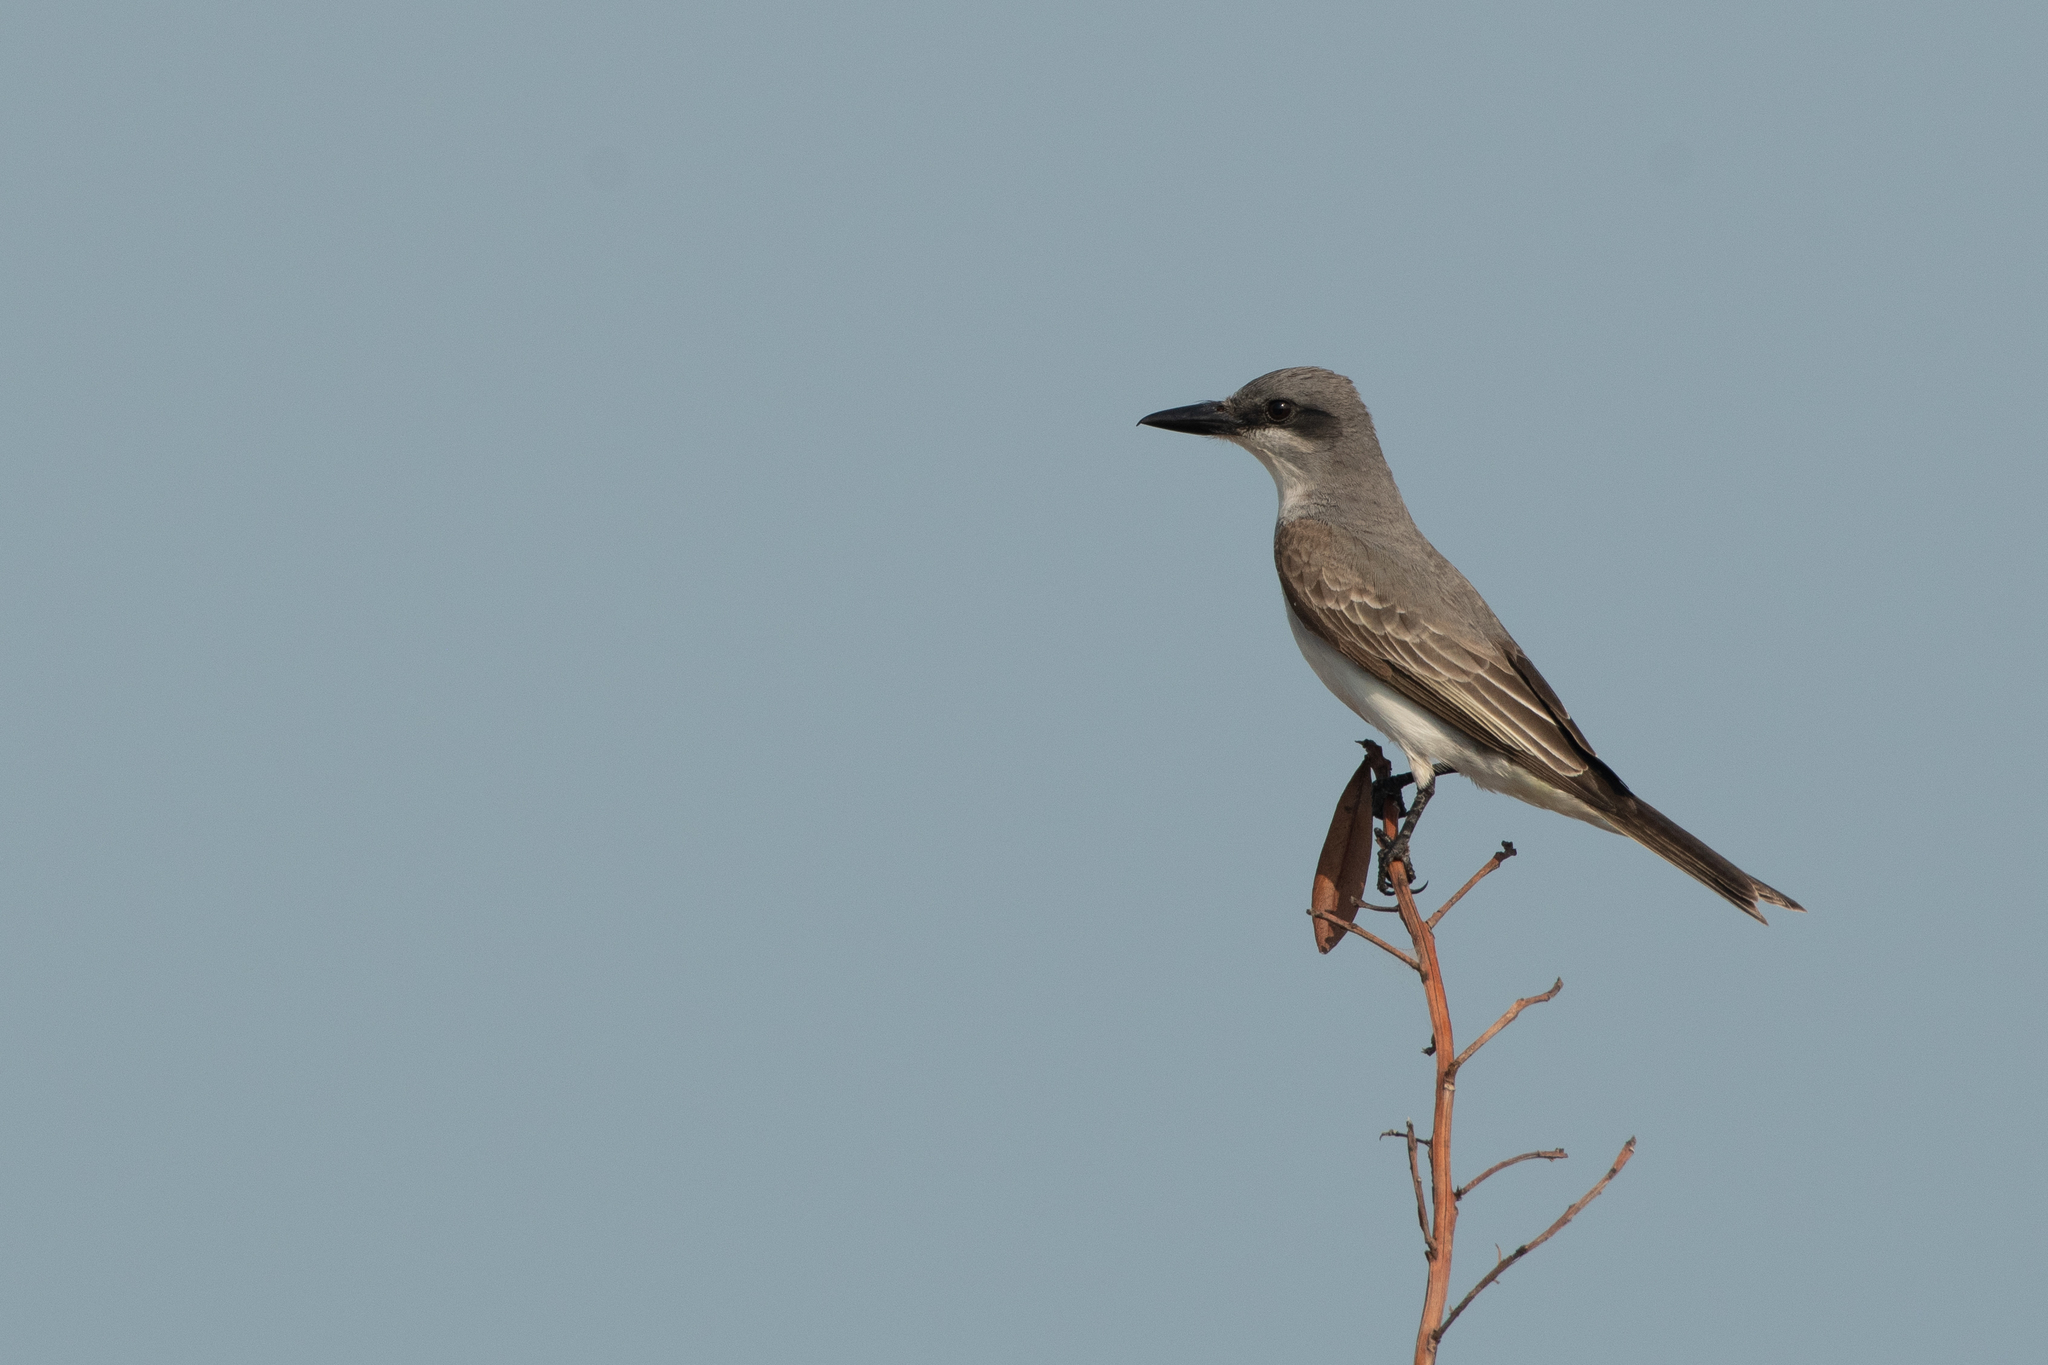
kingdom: Animalia
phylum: Chordata
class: Aves
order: Passeriformes
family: Tyrannidae
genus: Tyrannus
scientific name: Tyrannus dominicensis
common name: Gray kingbird
